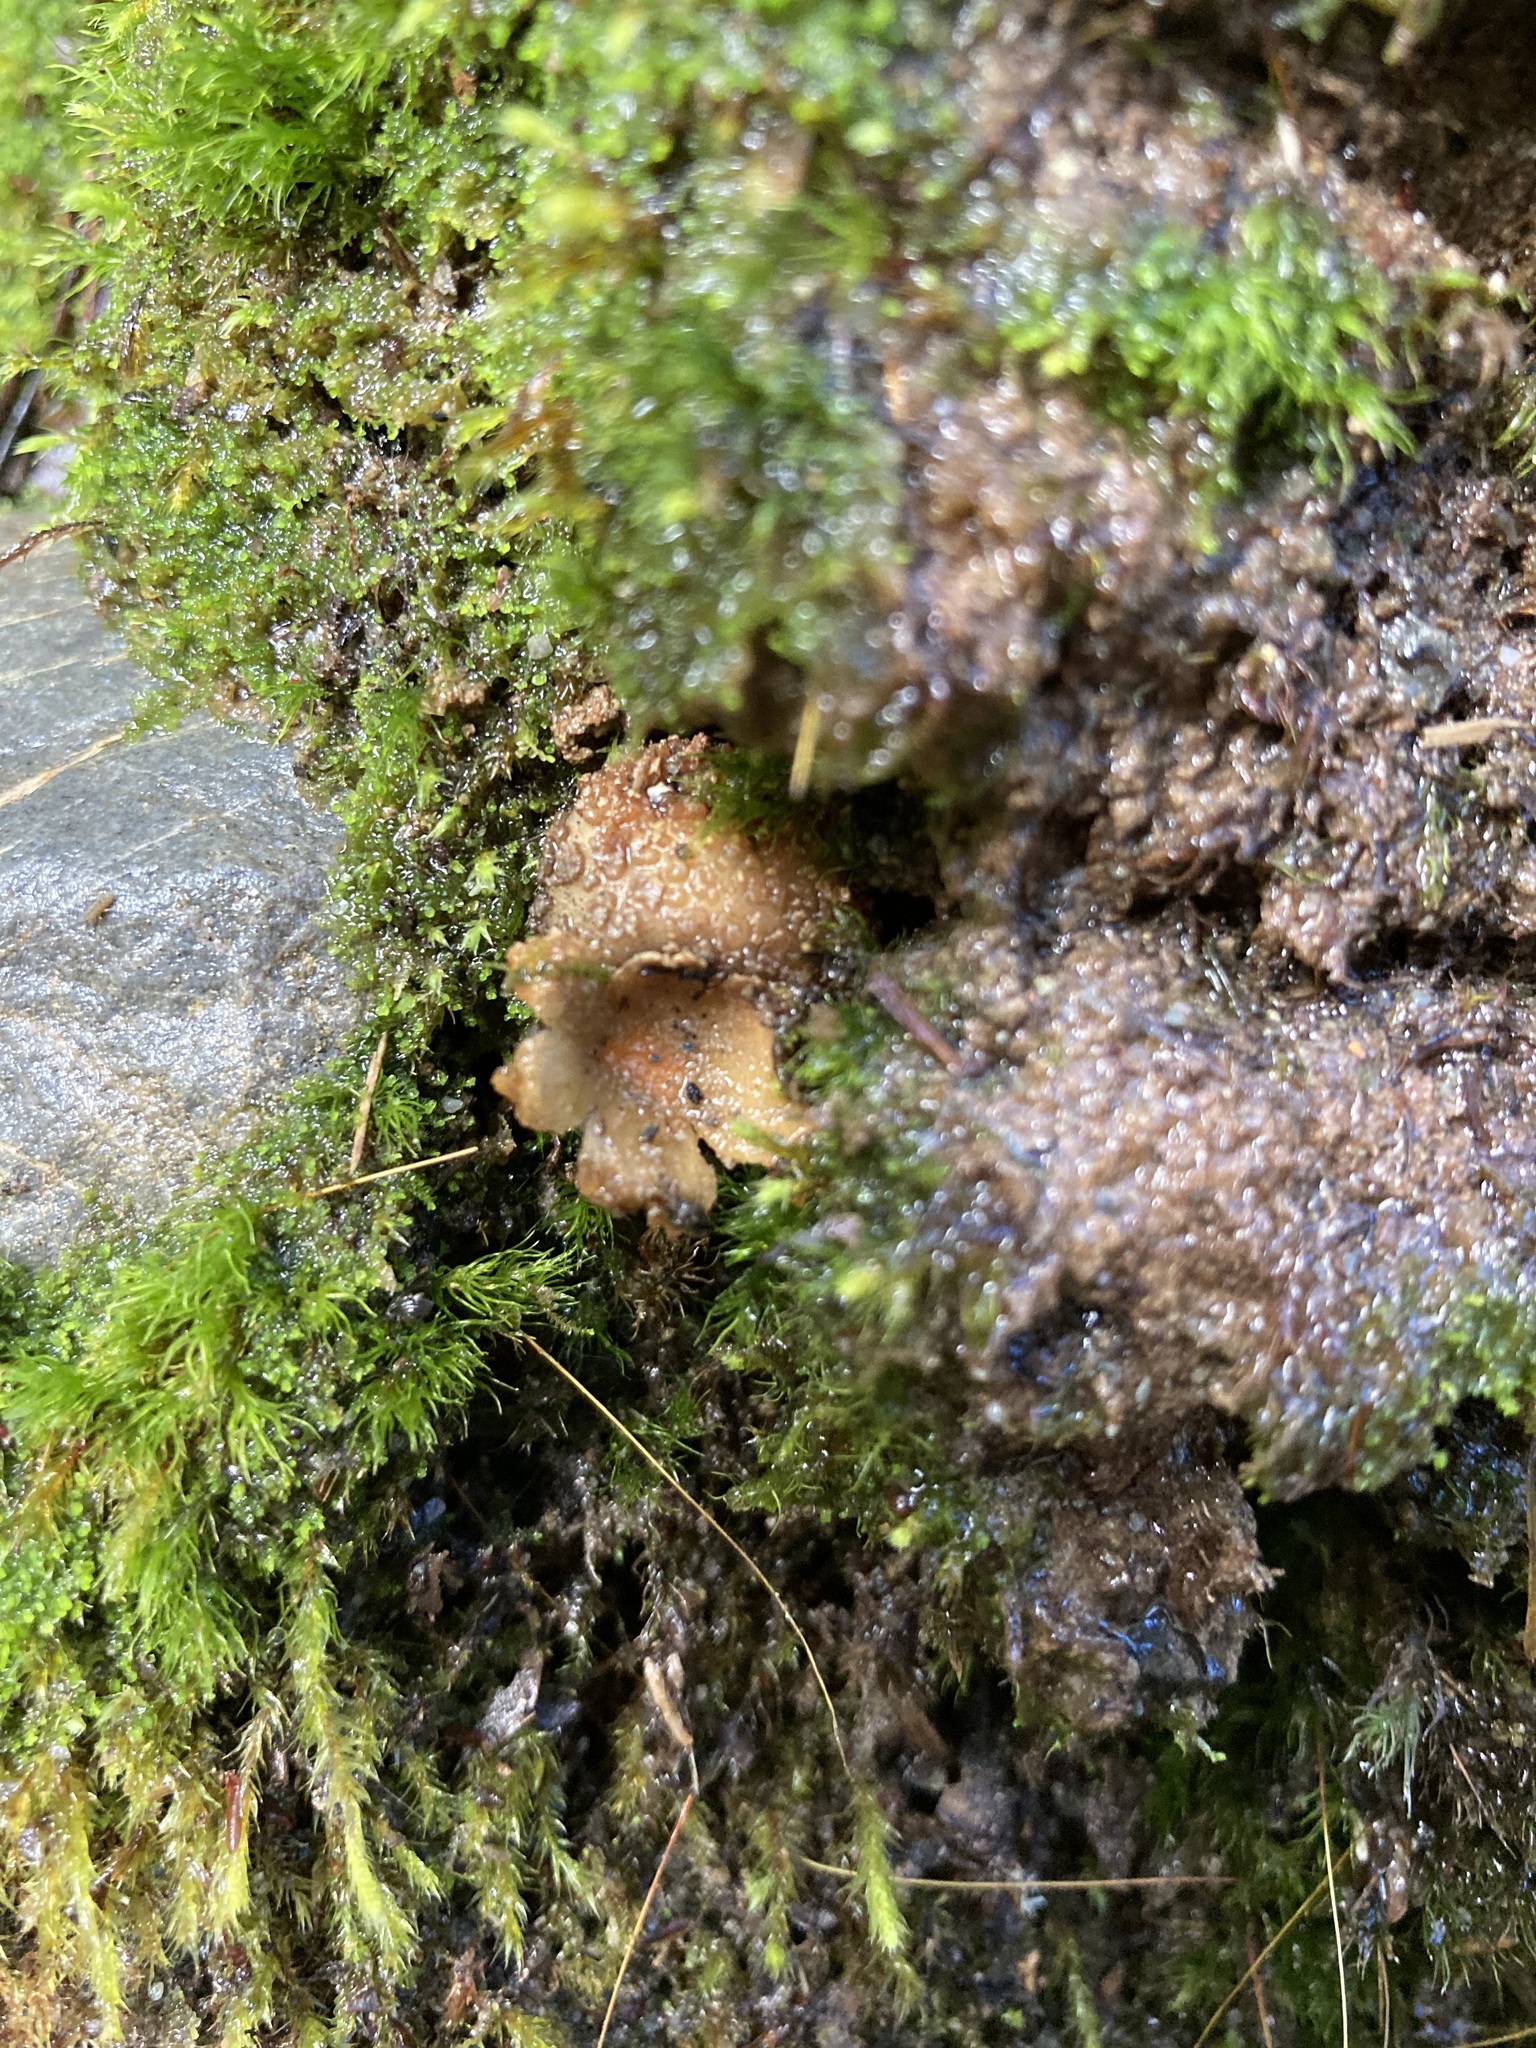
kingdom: Fungi
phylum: Basidiomycota
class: Agaricomycetes
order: Boletales
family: Calostomataceae
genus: Calostoma
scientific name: Calostoma rodwayi
